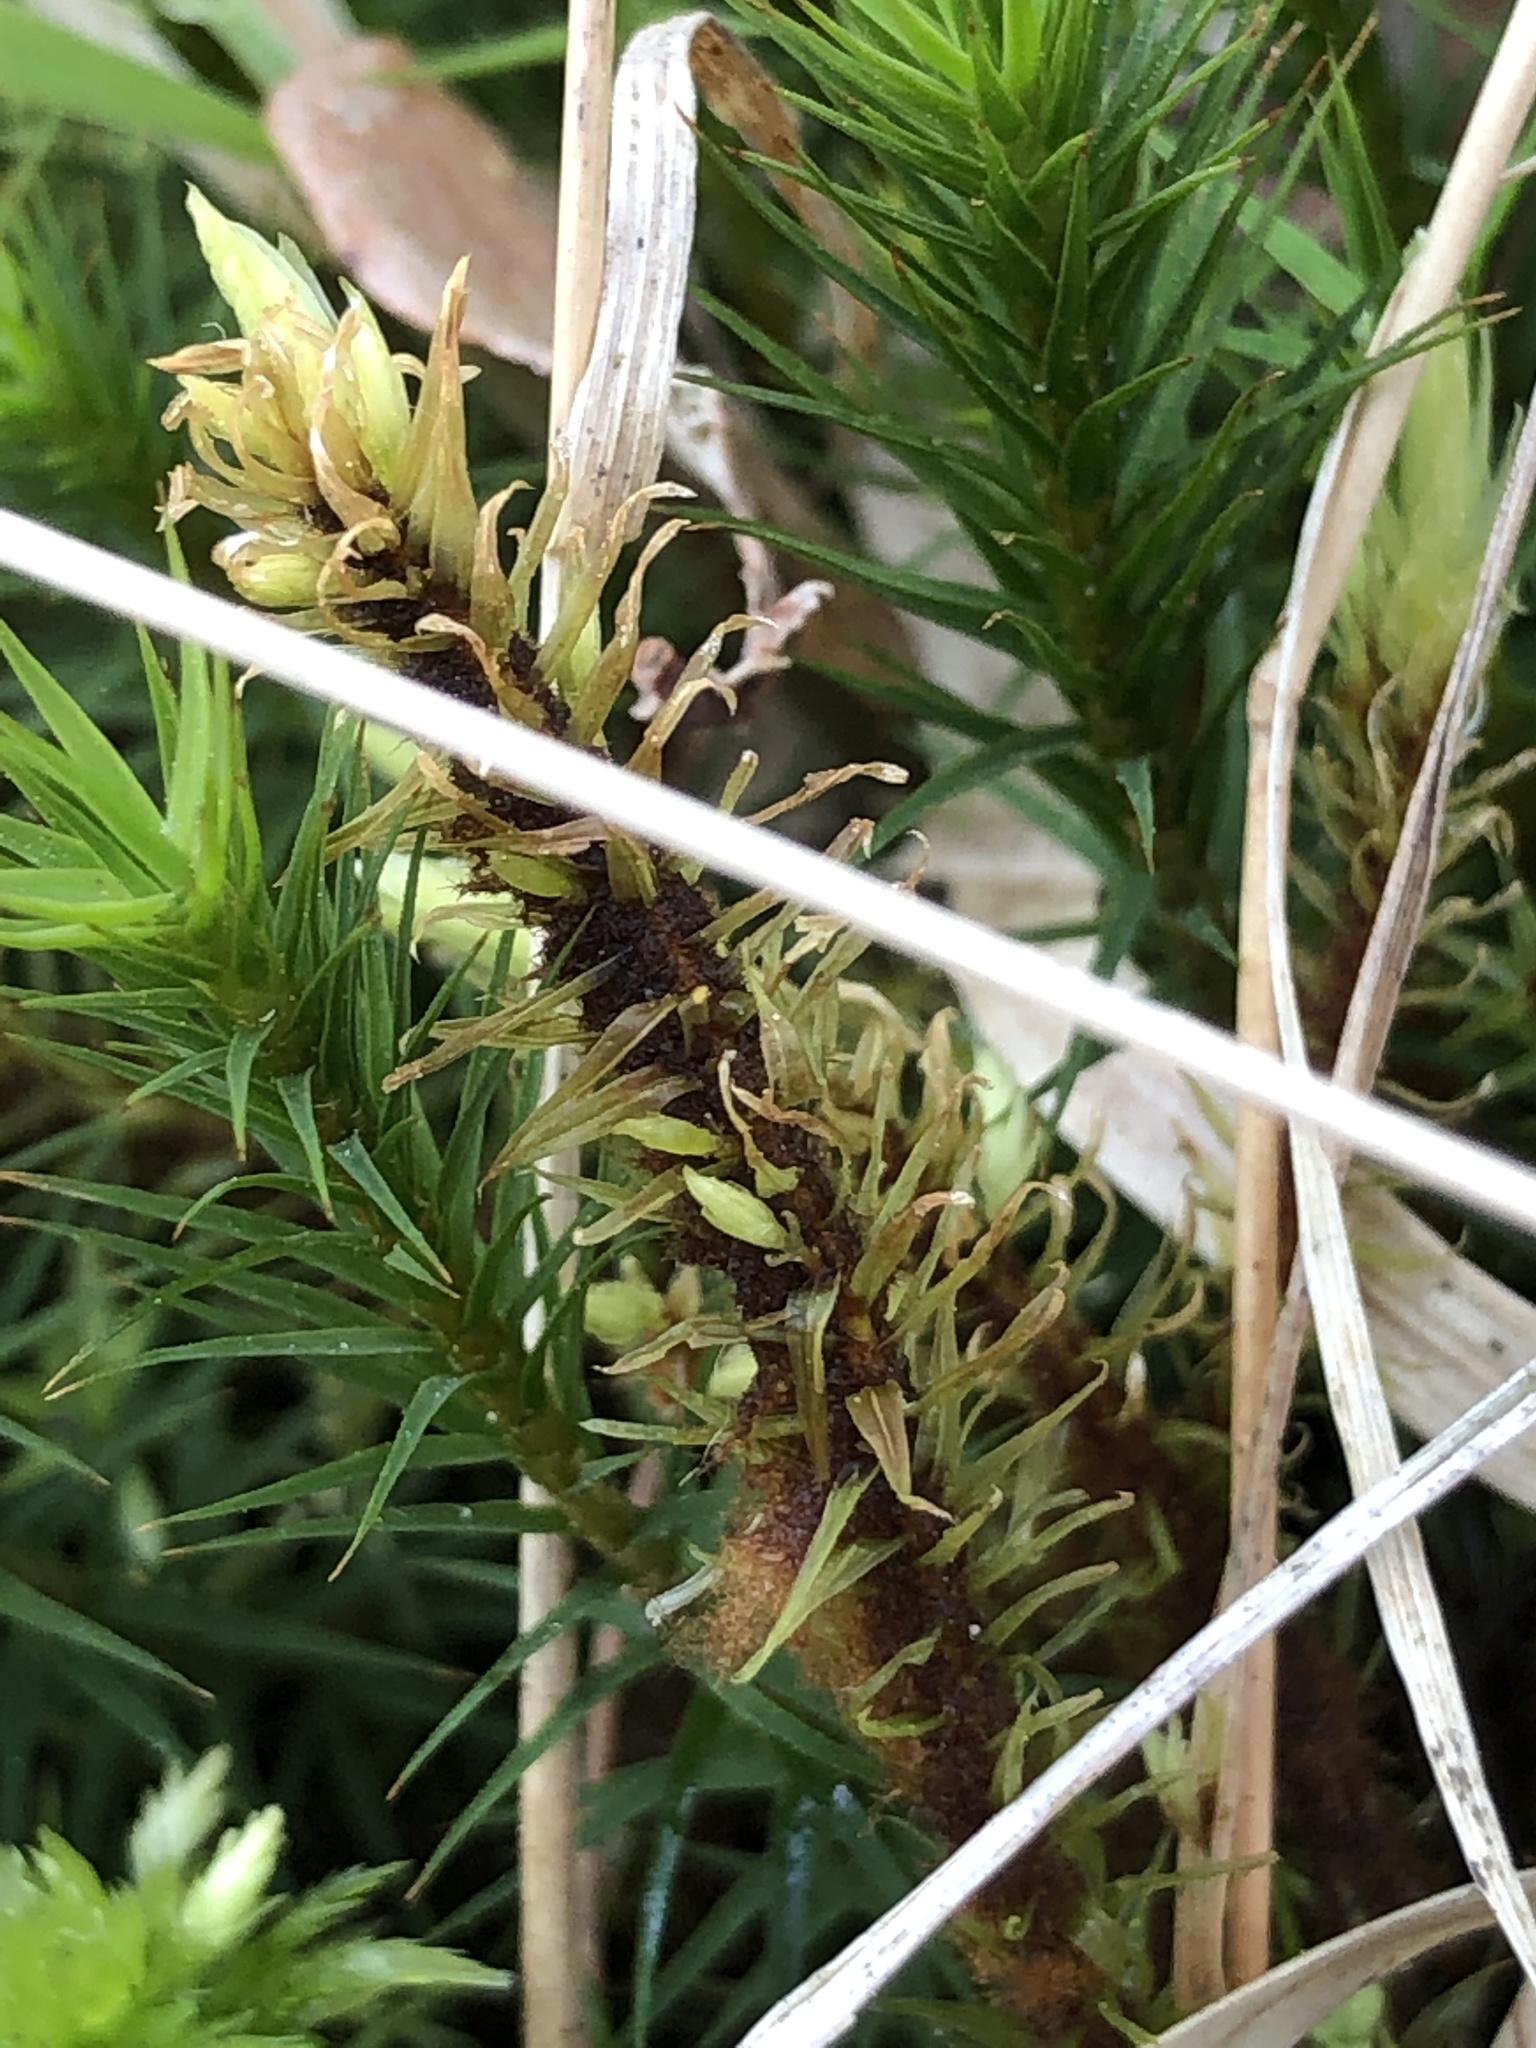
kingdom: Plantae
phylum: Bryophyta
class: Bryopsida
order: Aulacomniales
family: Aulacomniaceae
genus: Aulacomnium
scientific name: Aulacomnium palustre
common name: Bog groove-moss
